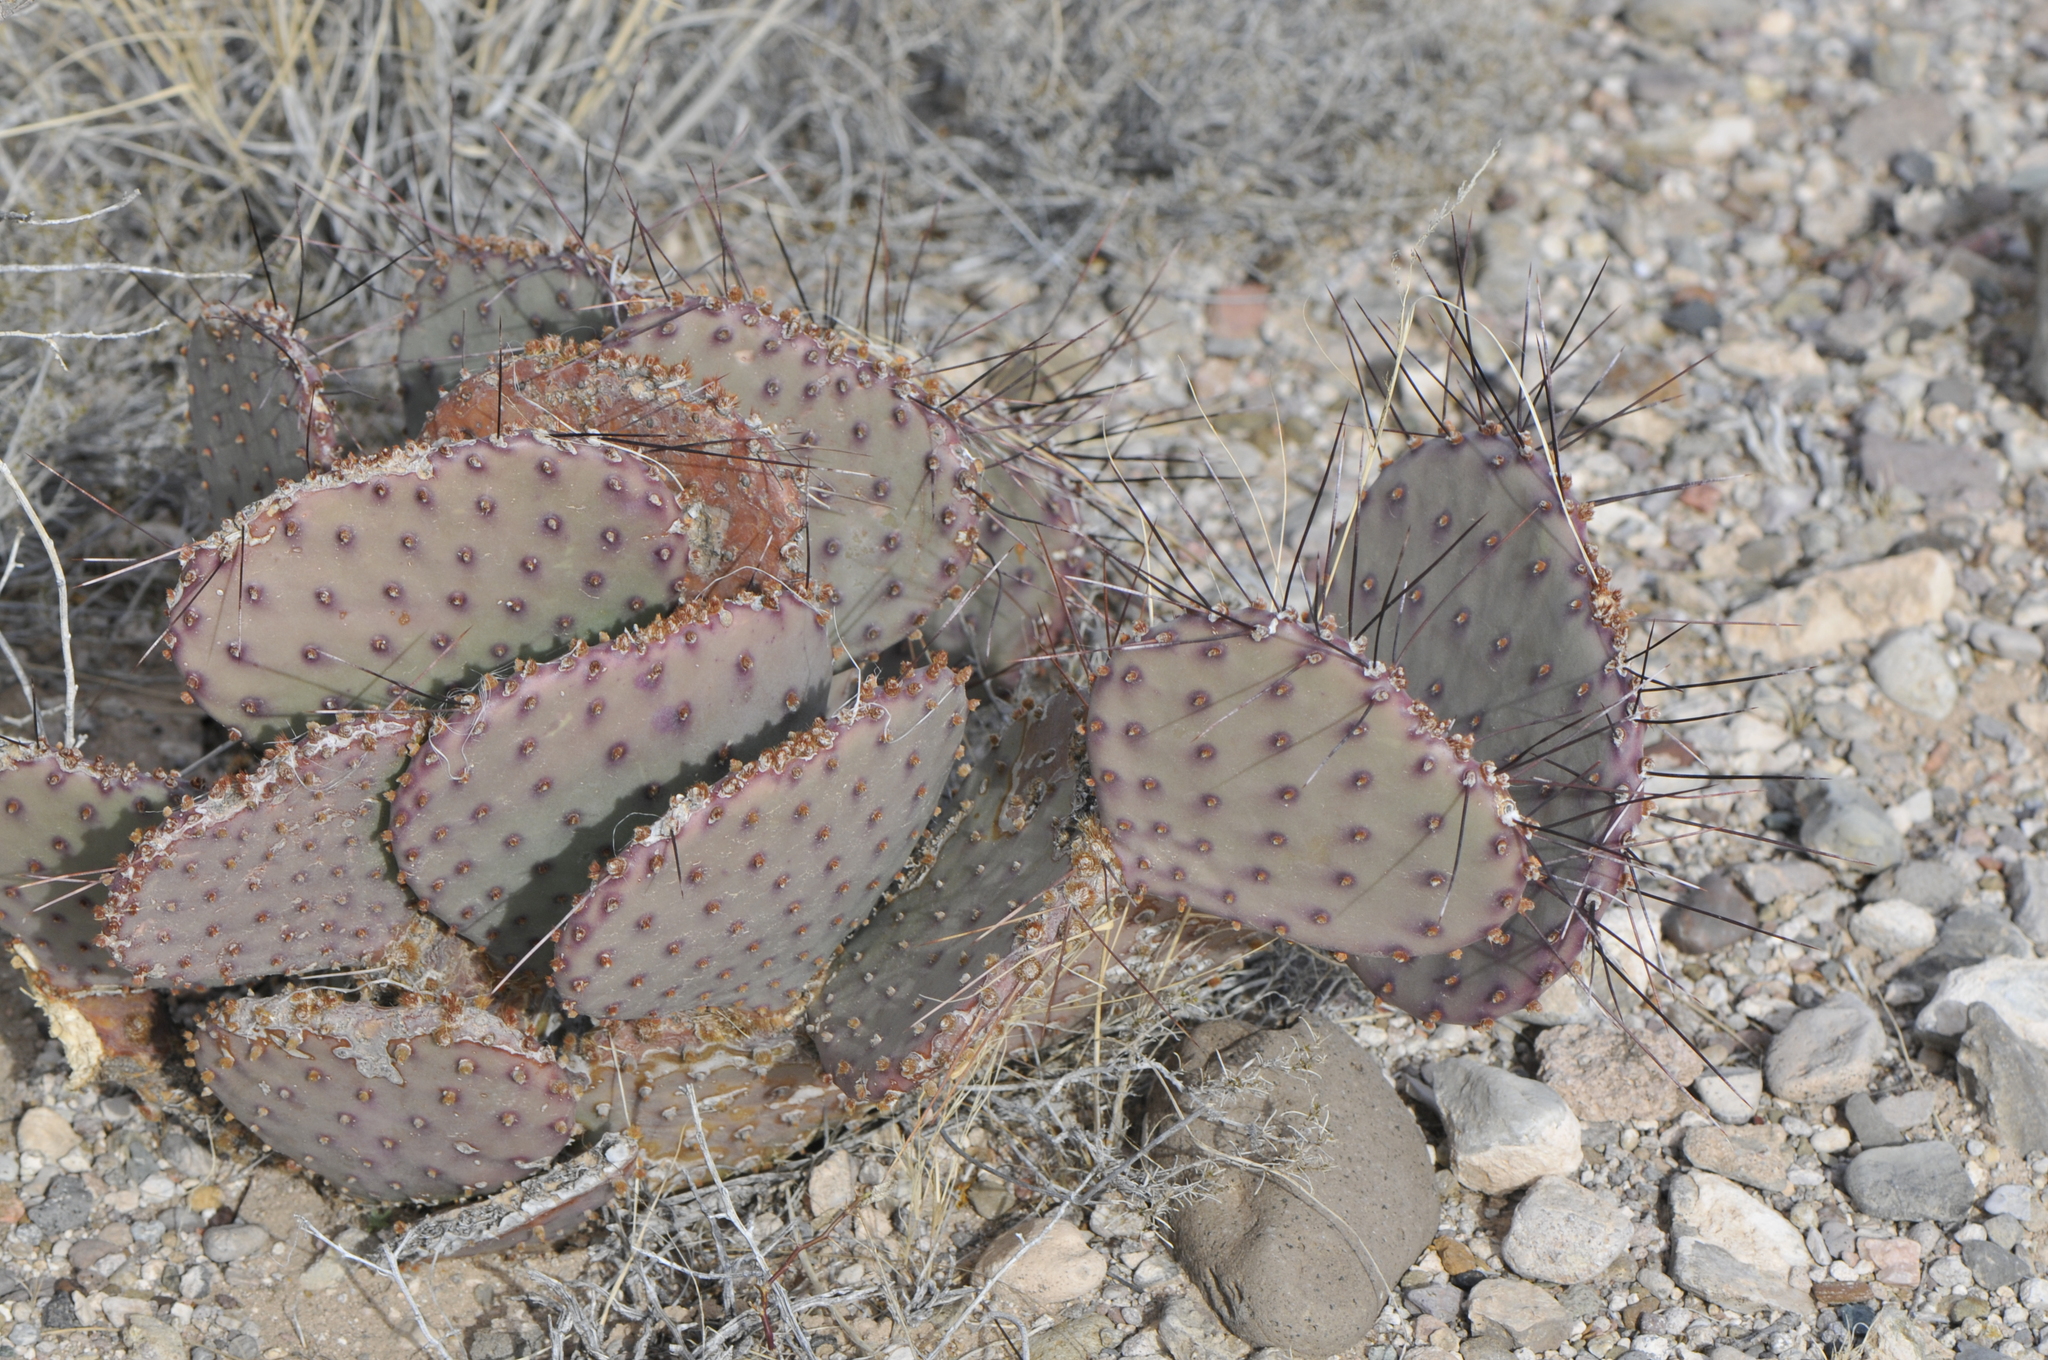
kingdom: Plantae
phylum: Tracheophyta
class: Magnoliopsida
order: Caryophyllales
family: Cactaceae
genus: Opuntia
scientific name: Opuntia macrocentra
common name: Purple prickly-pear
